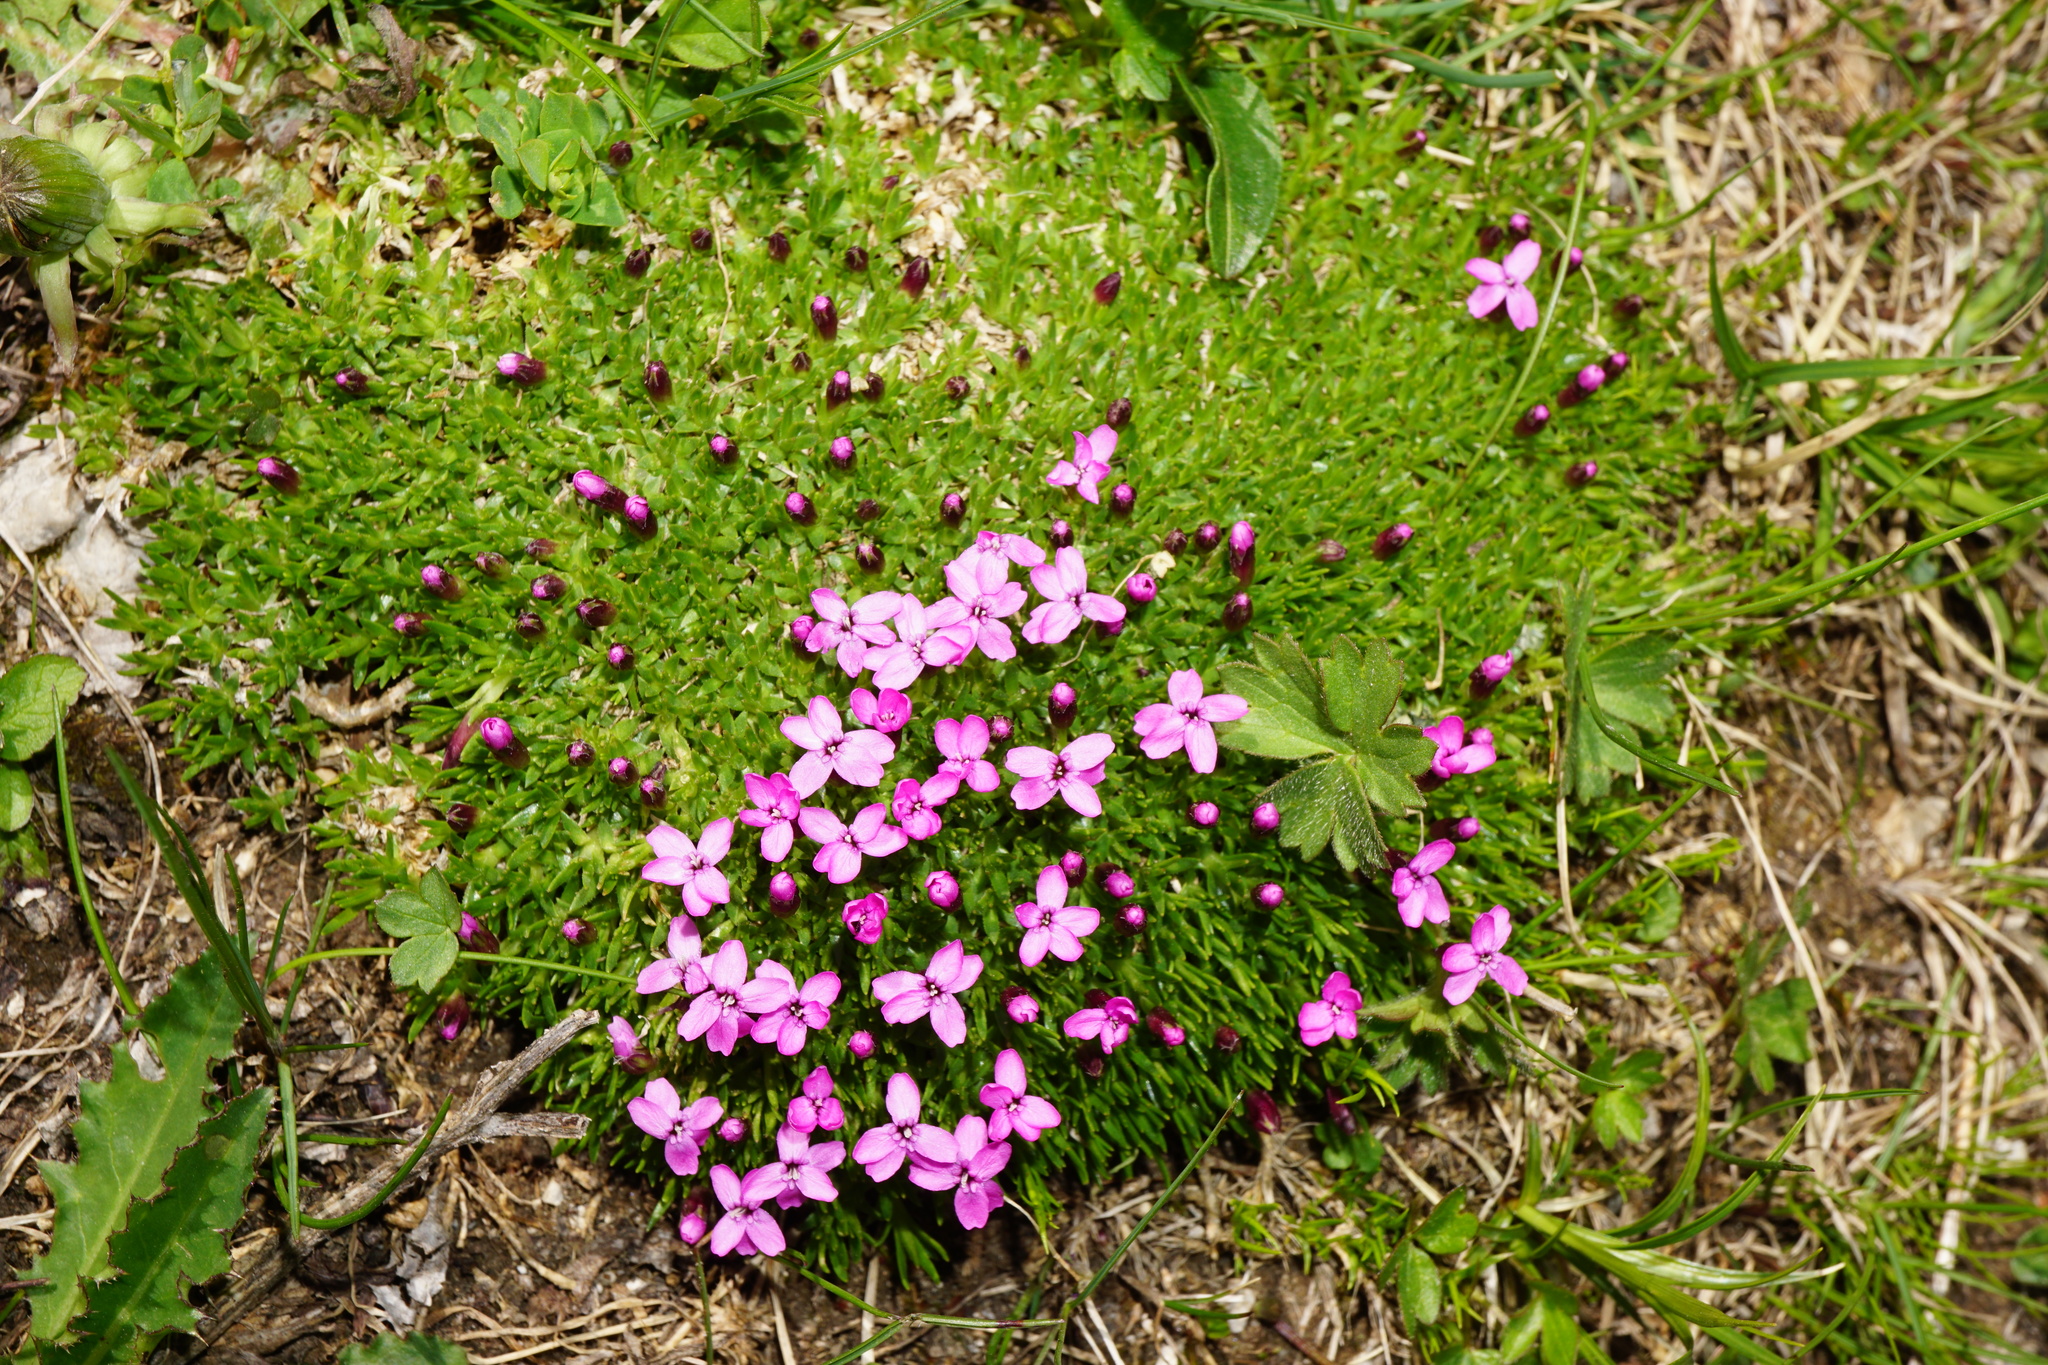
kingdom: Plantae
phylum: Tracheophyta
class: Magnoliopsida
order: Caryophyllales
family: Caryophyllaceae
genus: Silene
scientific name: Silene acaulis
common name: Moss campion
